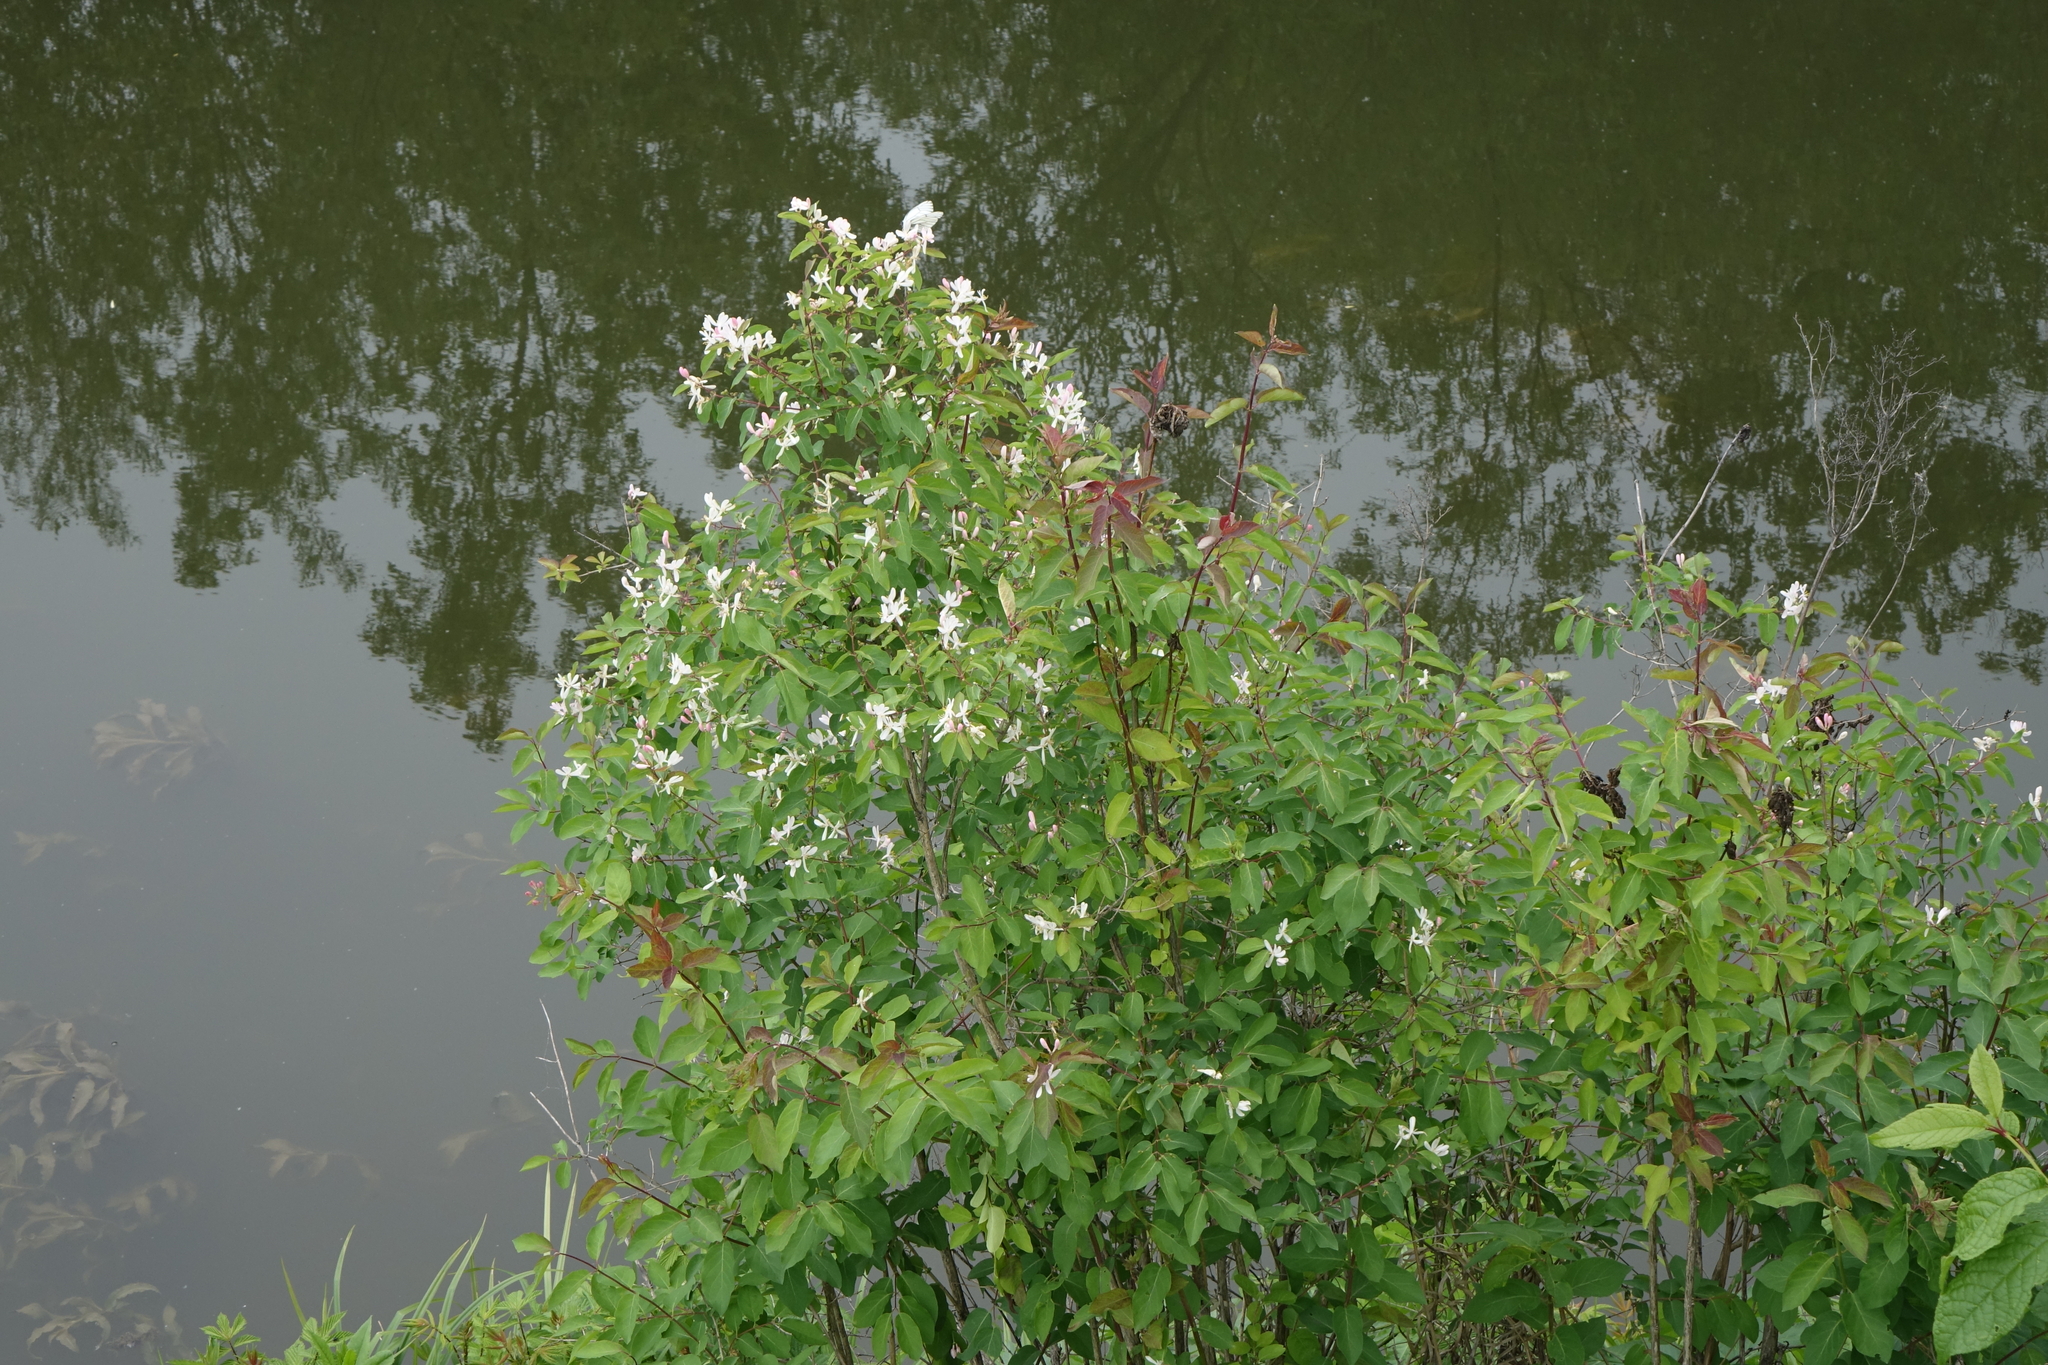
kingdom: Plantae
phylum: Tracheophyta
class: Magnoliopsida
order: Dipsacales
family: Caprifoliaceae
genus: Lonicera
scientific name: Lonicera tatarica
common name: Tatarian honeysuckle
